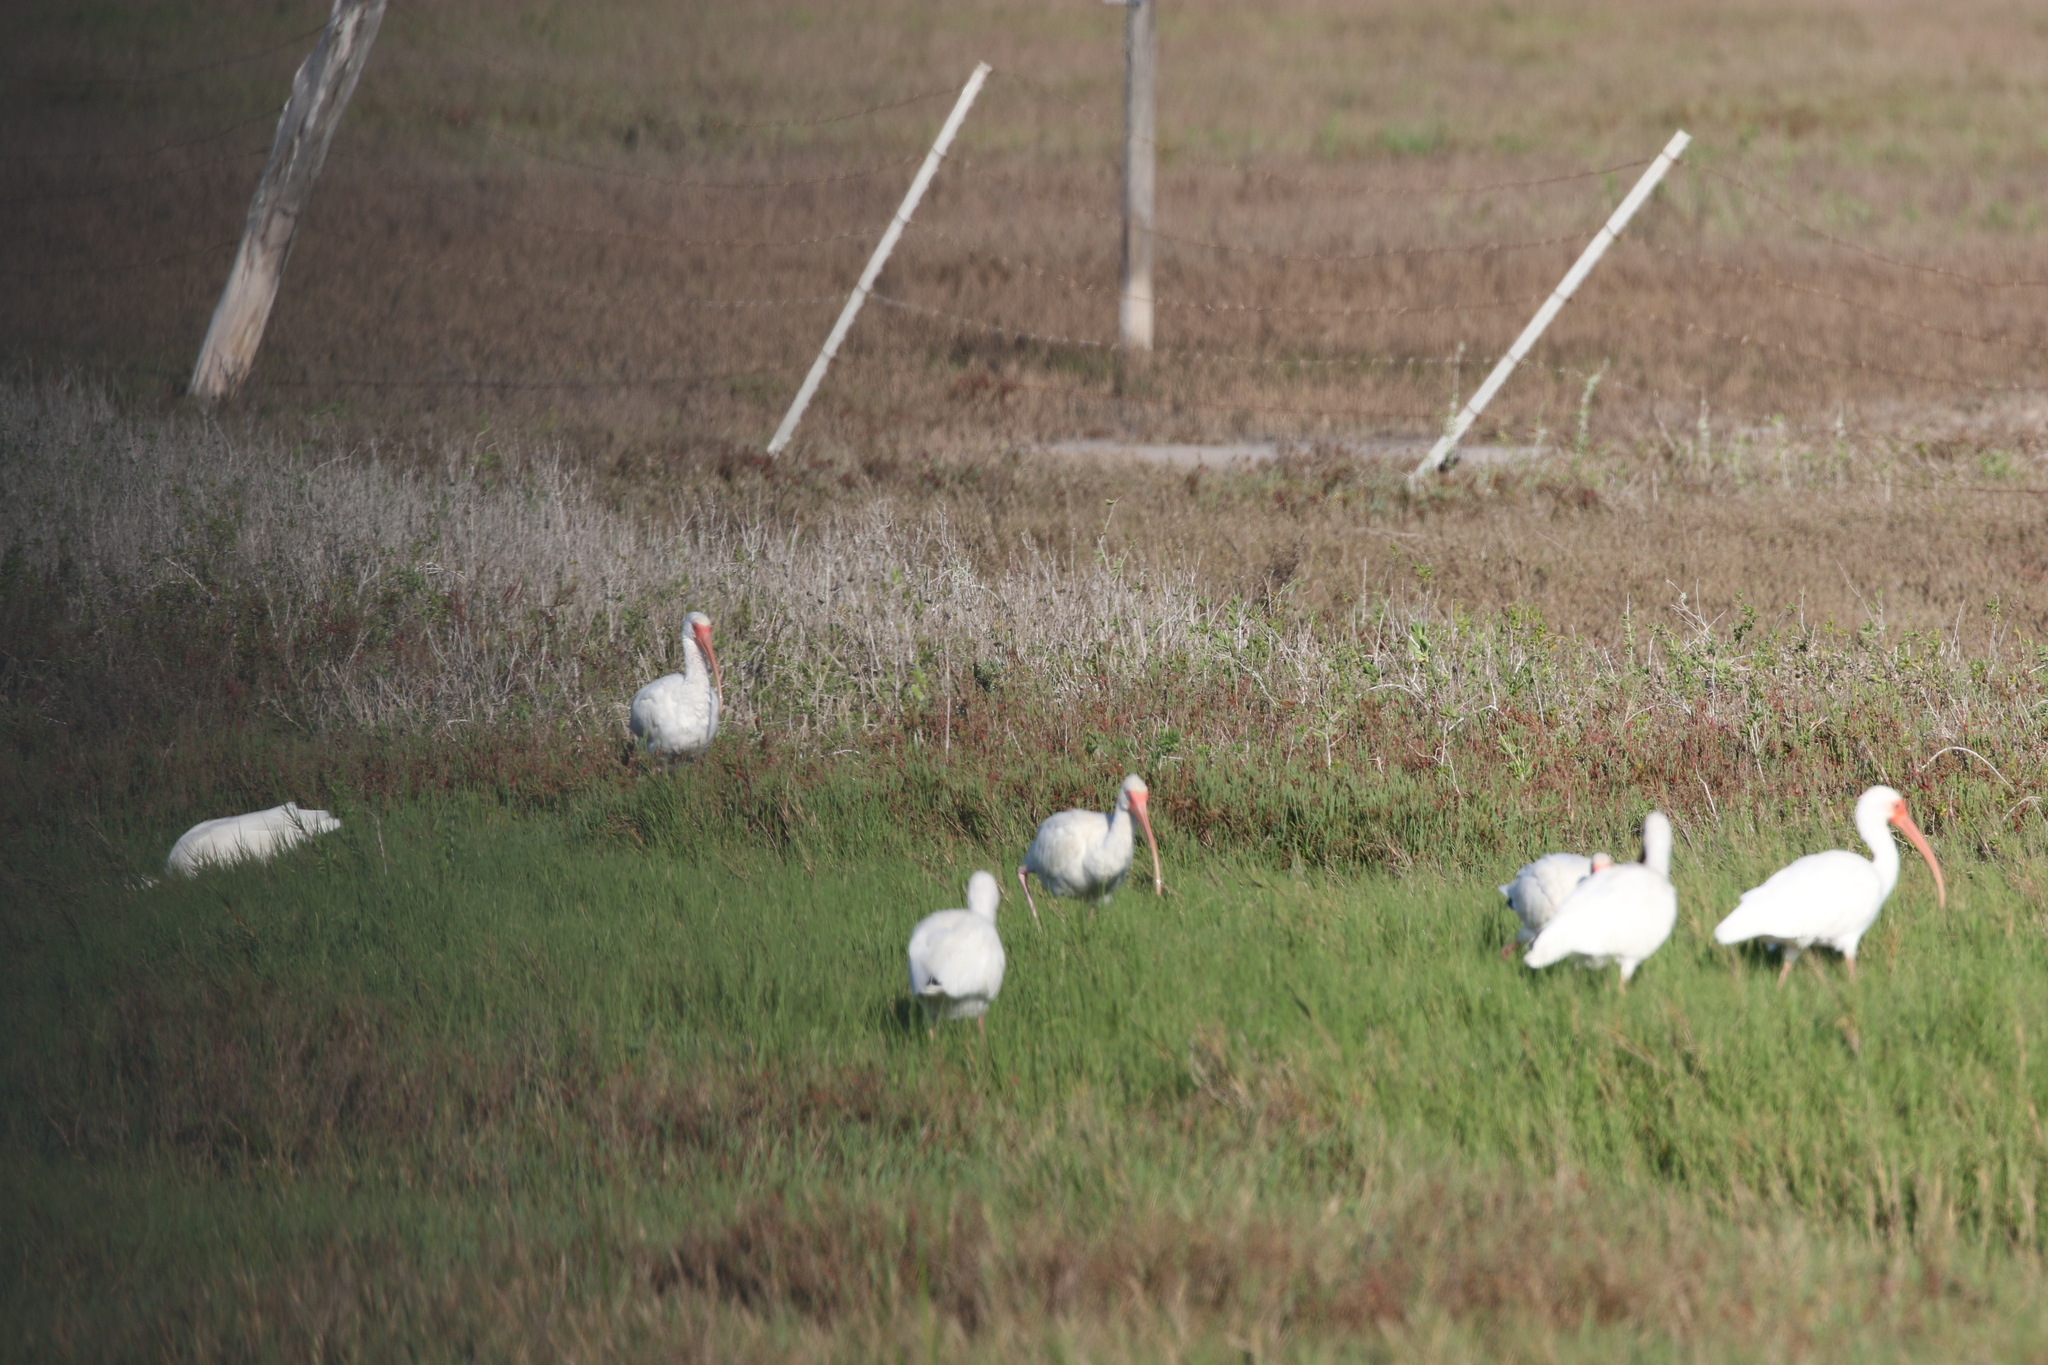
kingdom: Animalia
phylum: Chordata
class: Aves
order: Pelecaniformes
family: Threskiornithidae
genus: Eudocimus
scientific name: Eudocimus albus
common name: White ibis
